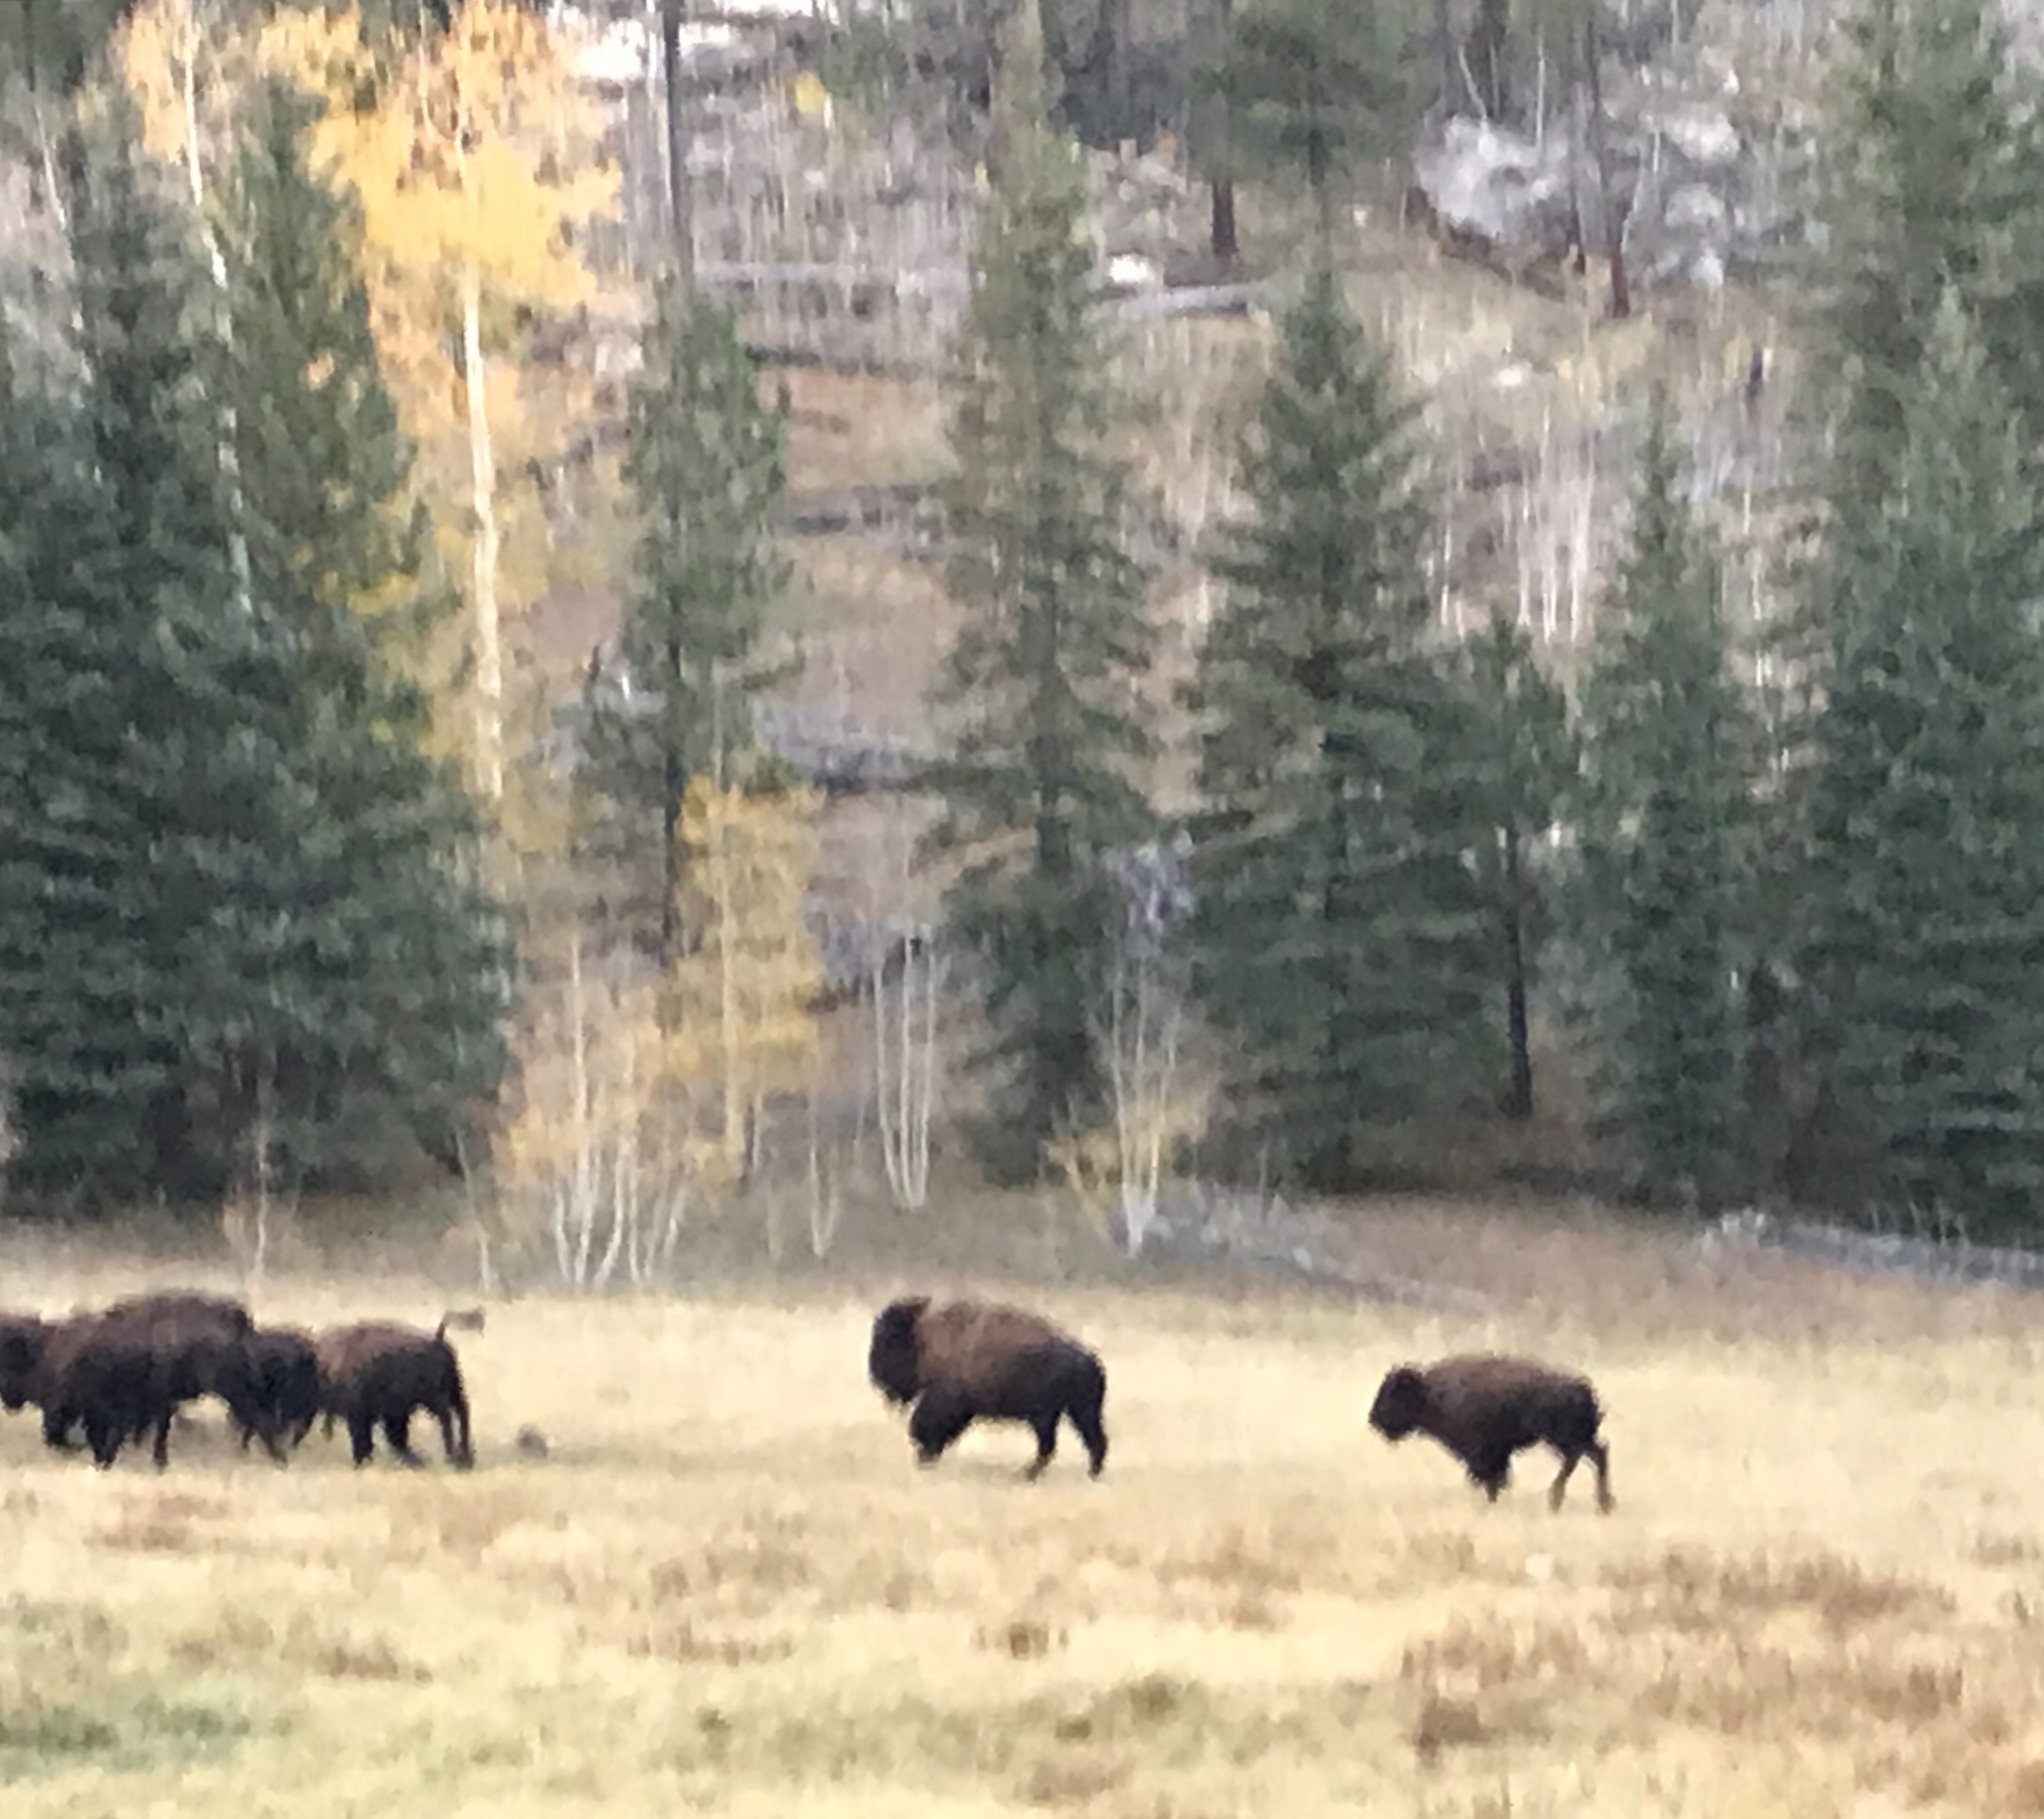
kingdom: Animalia
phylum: Chordata
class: Mammalia
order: Artiodactyla
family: Bovidae
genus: Bison
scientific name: Bison bison
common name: American bison
